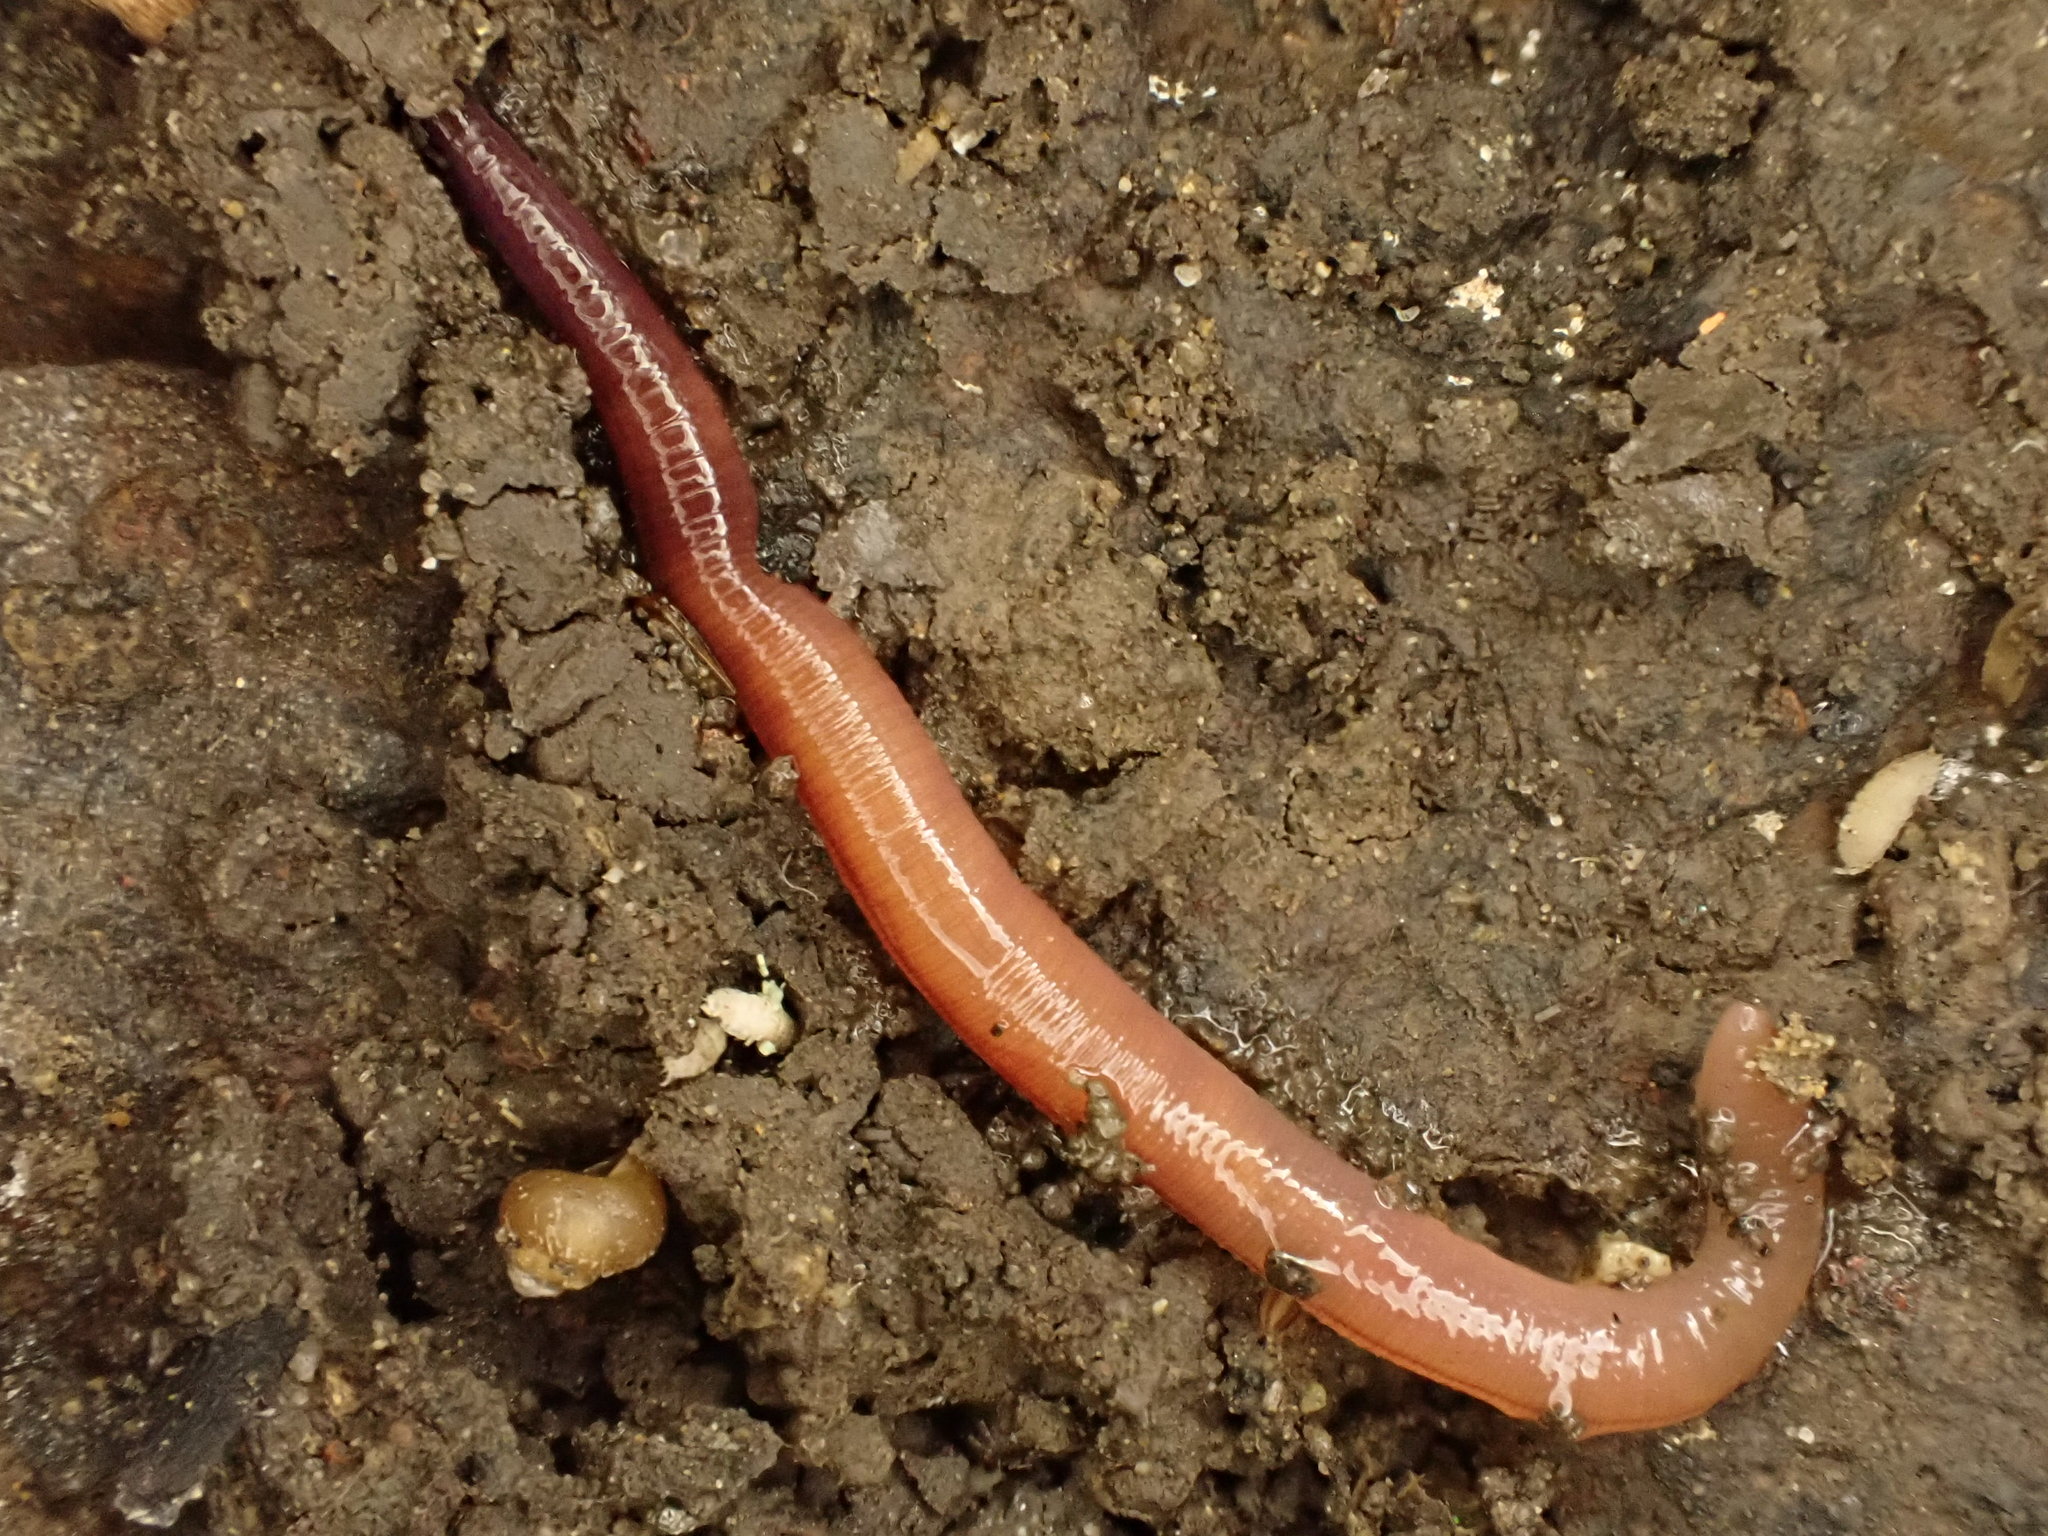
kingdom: Animalia
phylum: Annelida
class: Clitellata
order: Crassiclitellata
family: Lumbricidae
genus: Lumbricus
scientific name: Lumbricus terrestris
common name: Common earthworm
